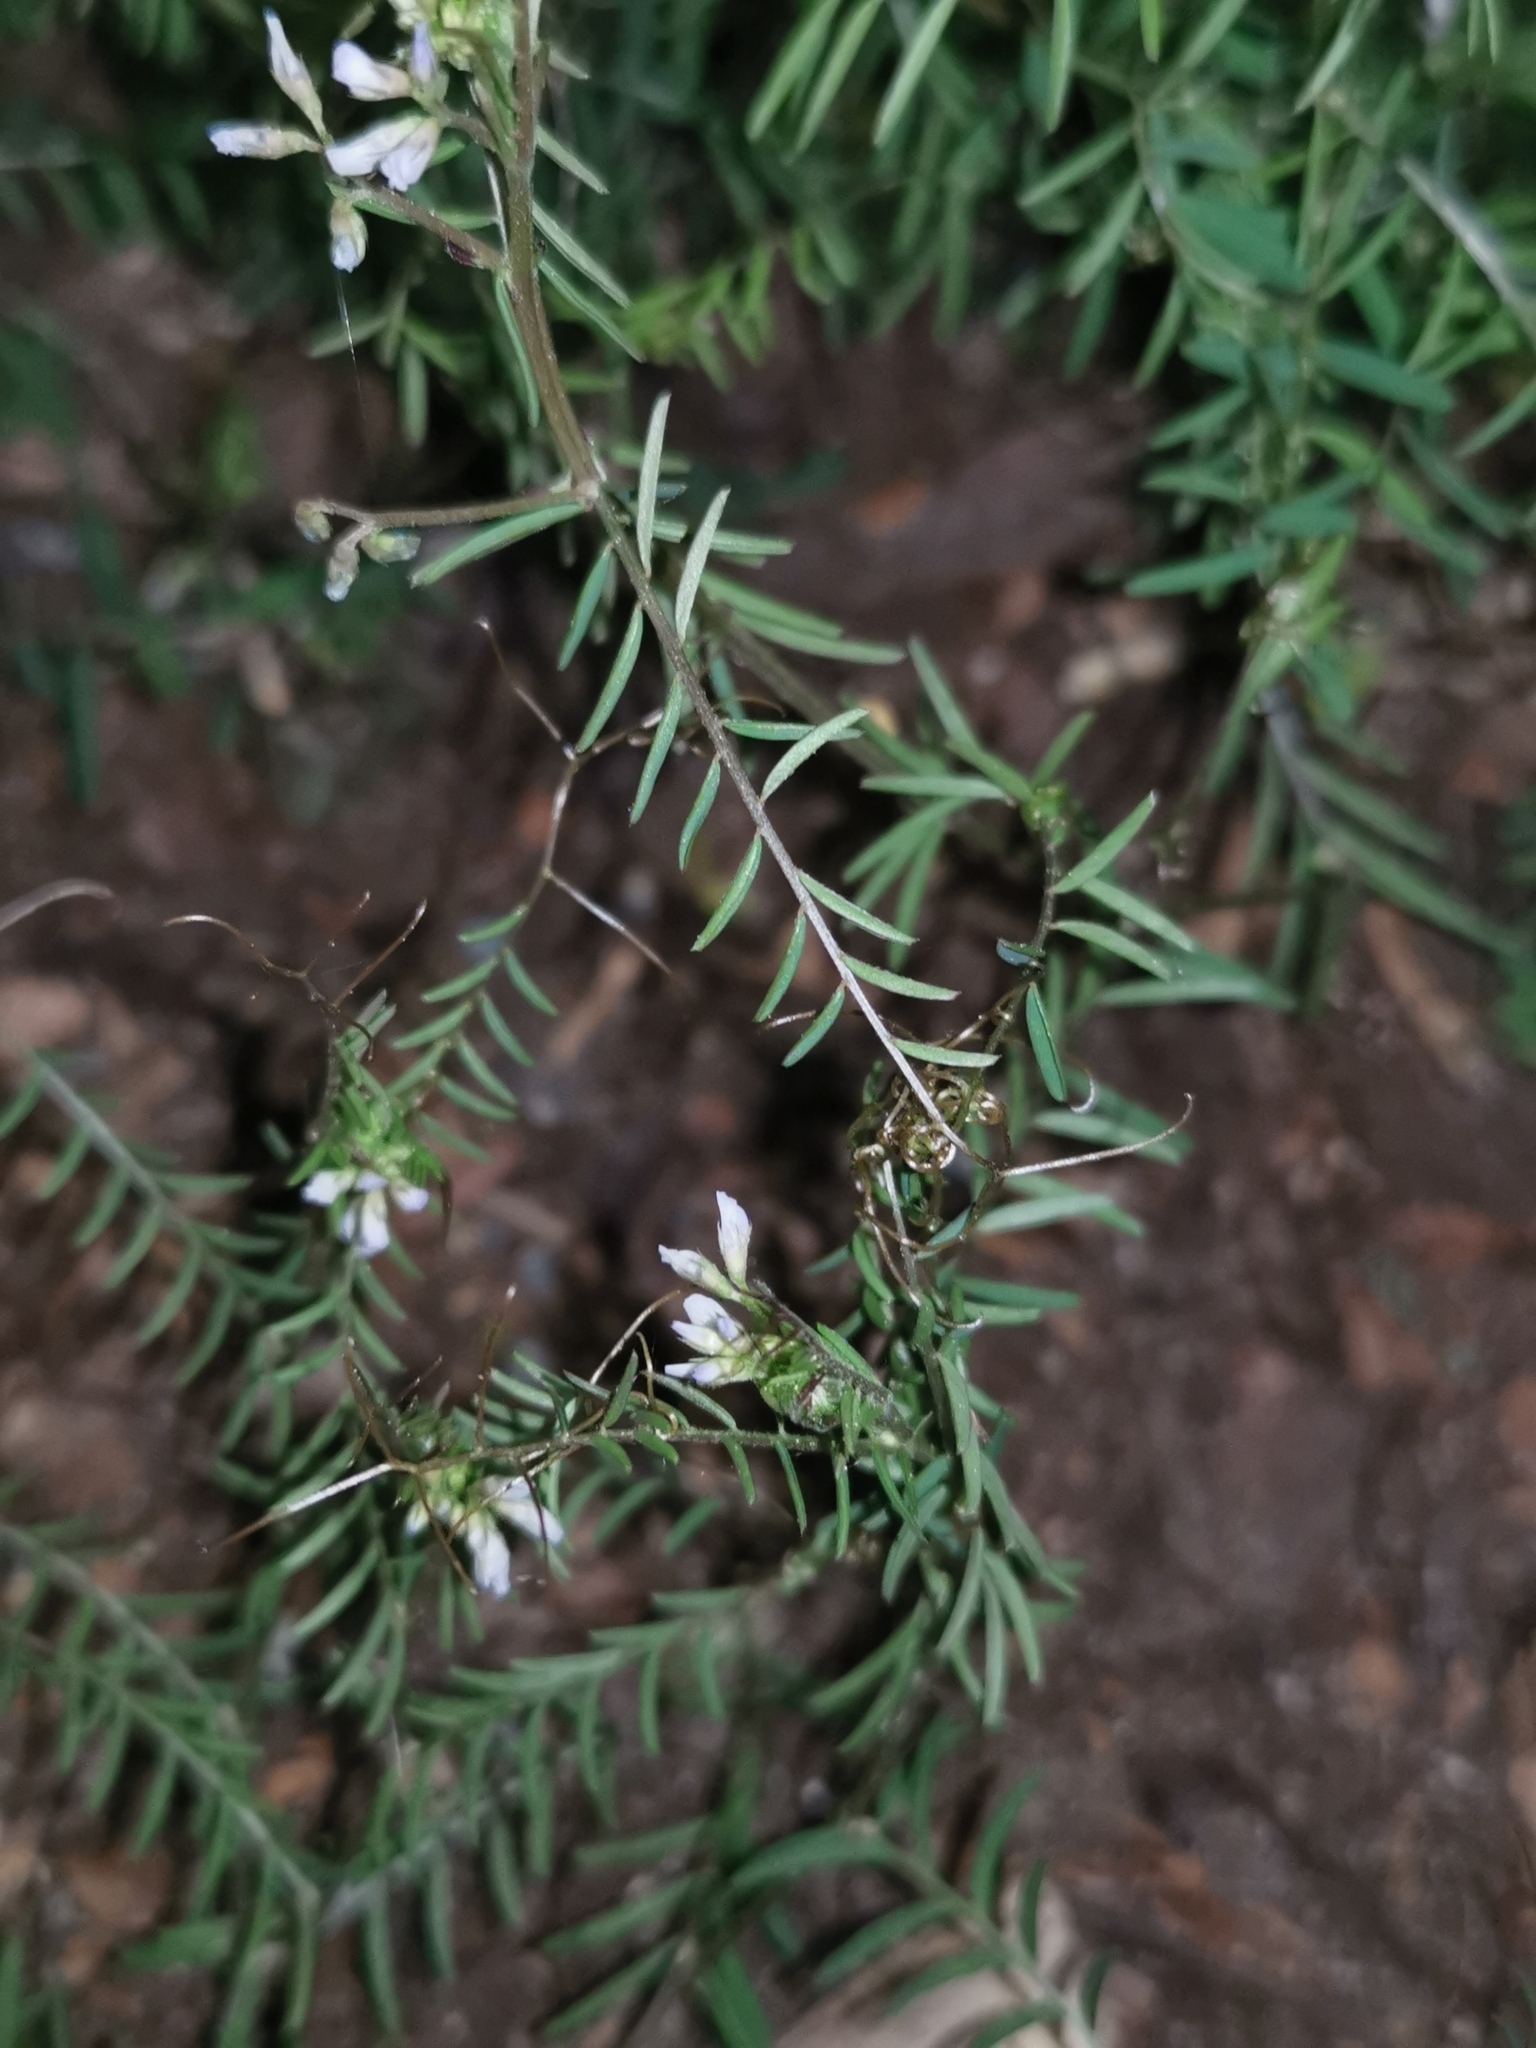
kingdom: Plantae
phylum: Tracheophyta
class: Magnoliopsida
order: Fabales
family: Fabaceae
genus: Vicia
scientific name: Vicia hirsuta
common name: Tiny vetch
